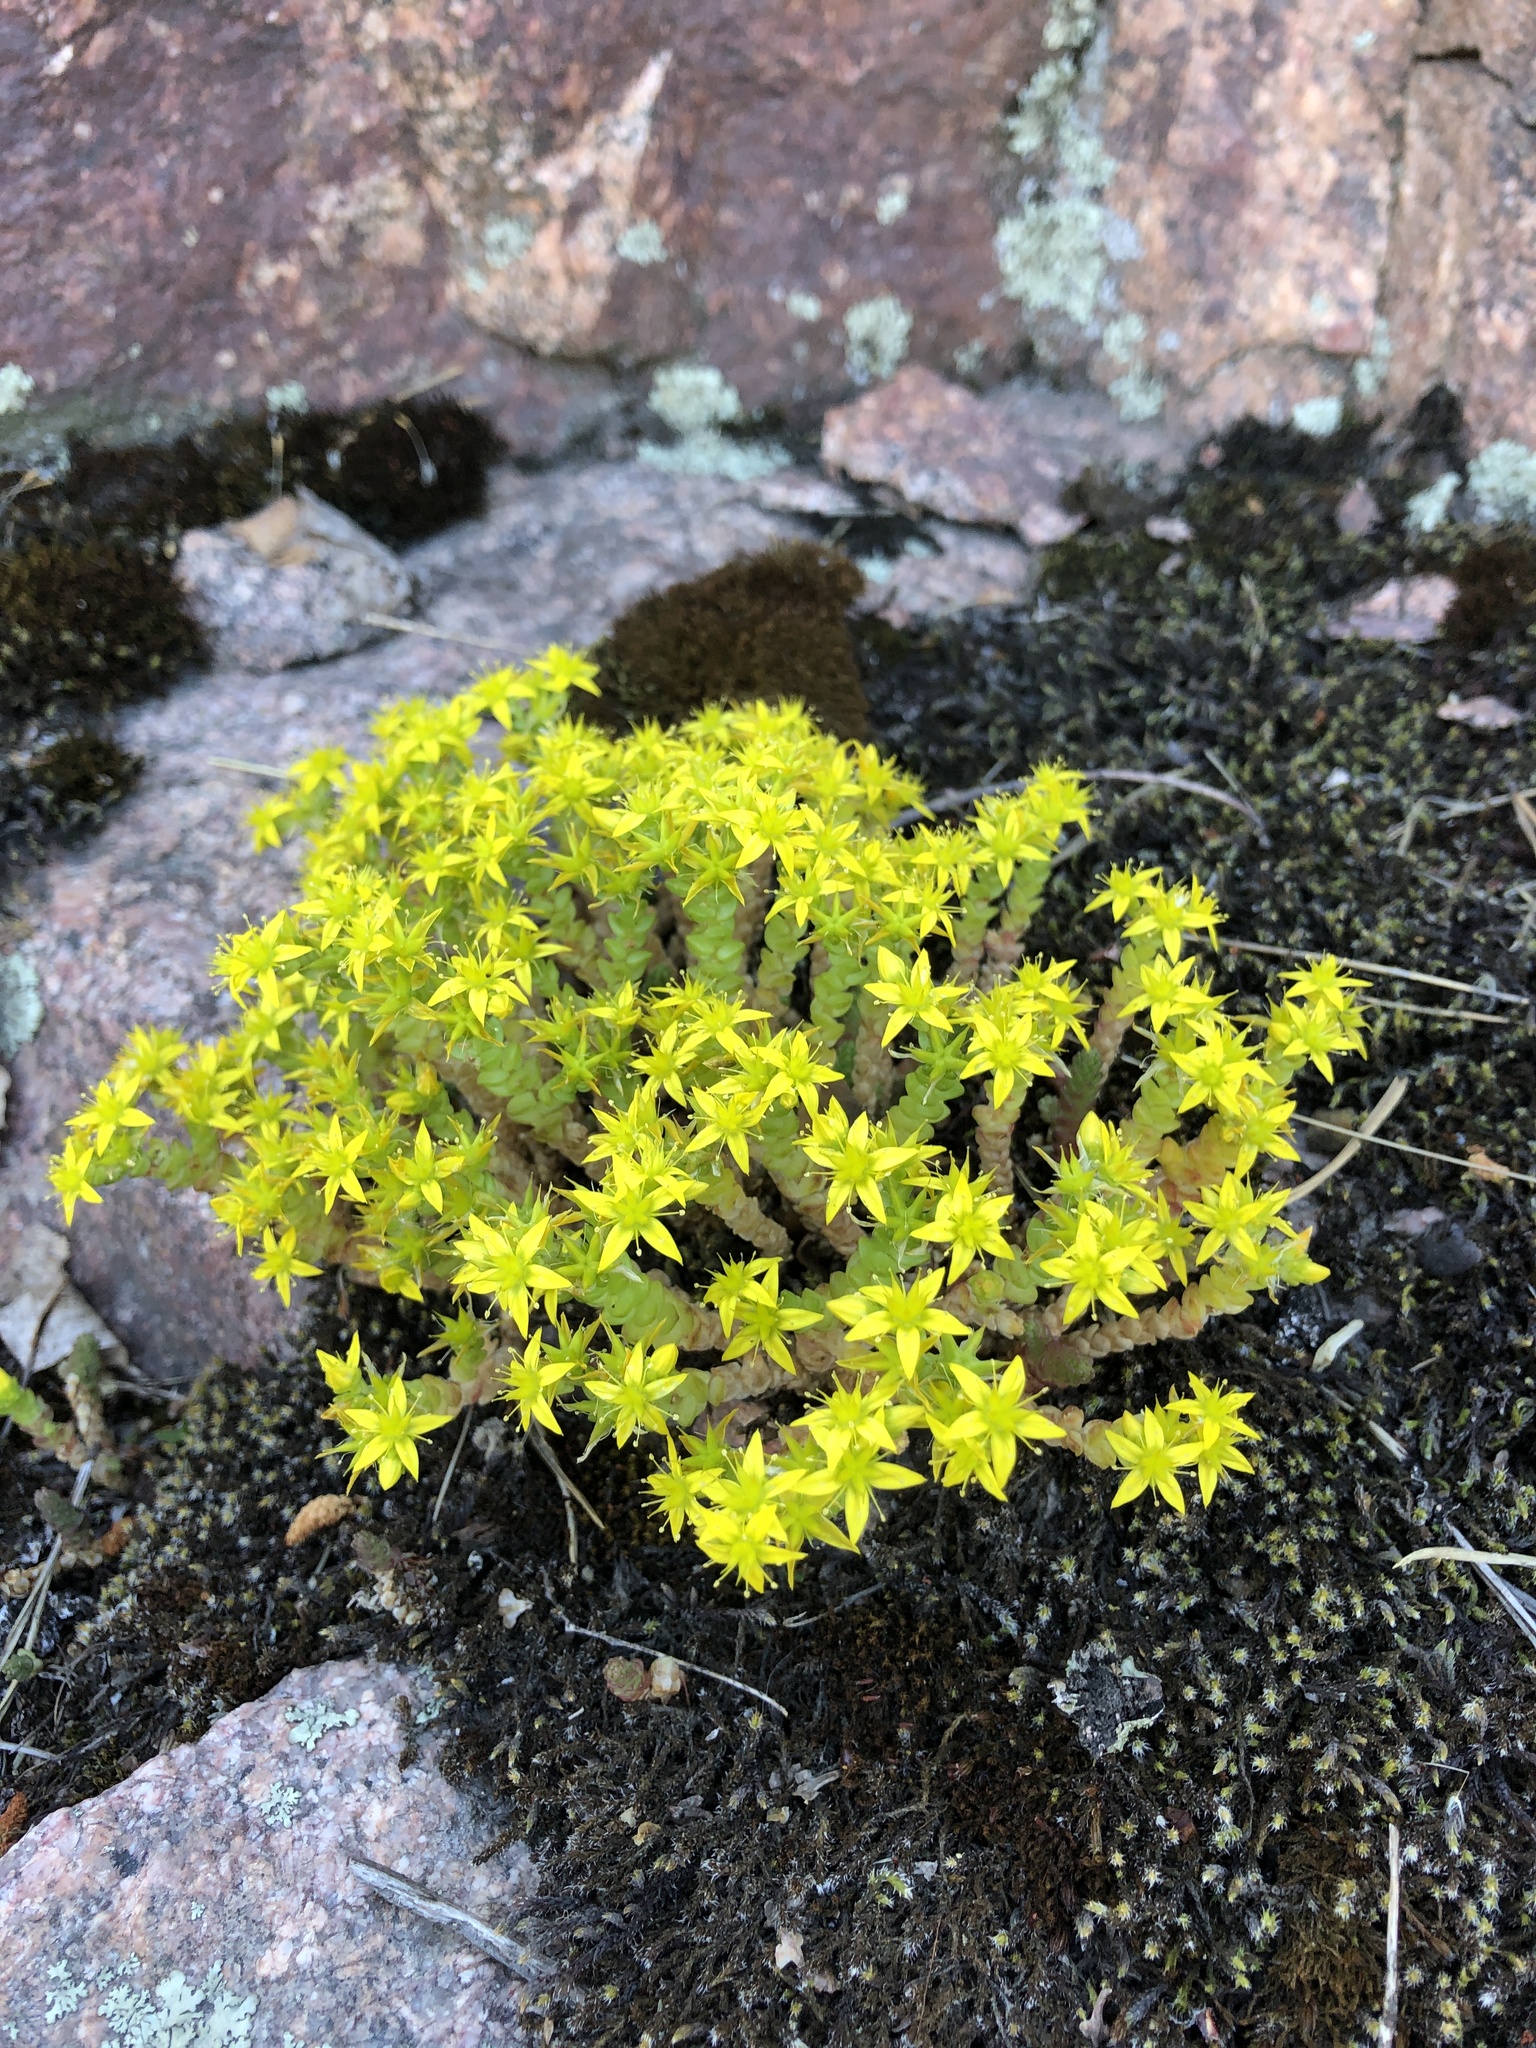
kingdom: Plantae
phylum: Tracheophyta
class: Magnoliopsida
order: Saxifragales
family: Crassulaceae
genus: Sedum
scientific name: Sedum acre
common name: Biting stonecrop
